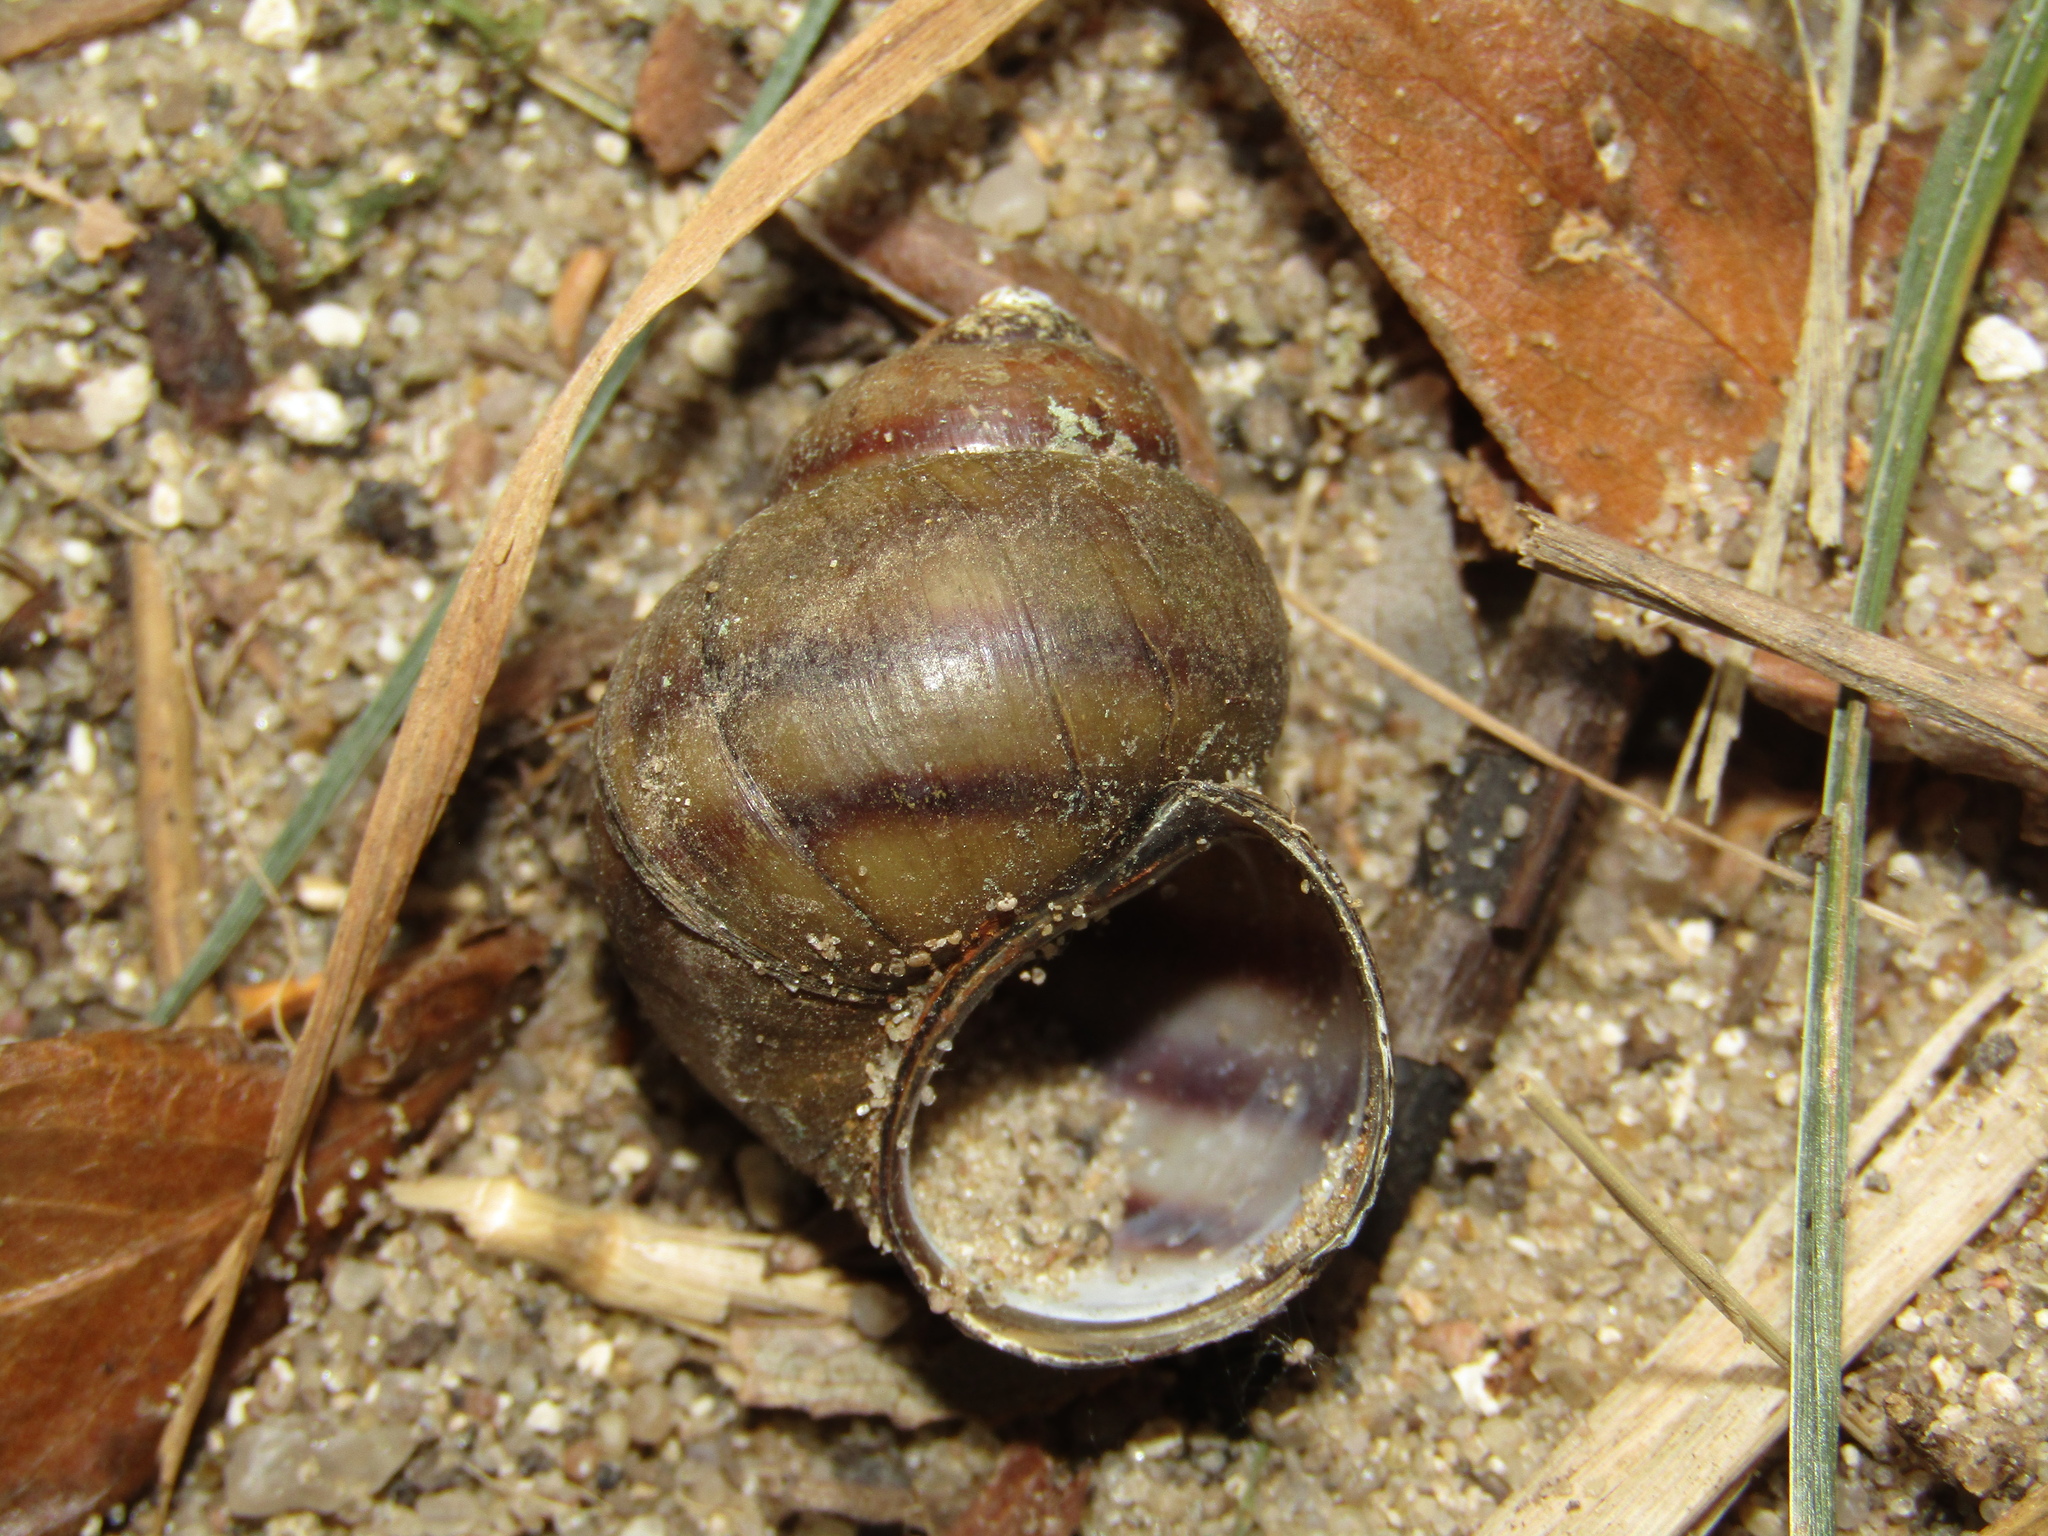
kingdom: Animalia
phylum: Mollusca
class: Gastropoda
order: Architaenioglossa
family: Viviparidae
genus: Viviparus
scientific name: Viviparus viviparus
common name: River snail
